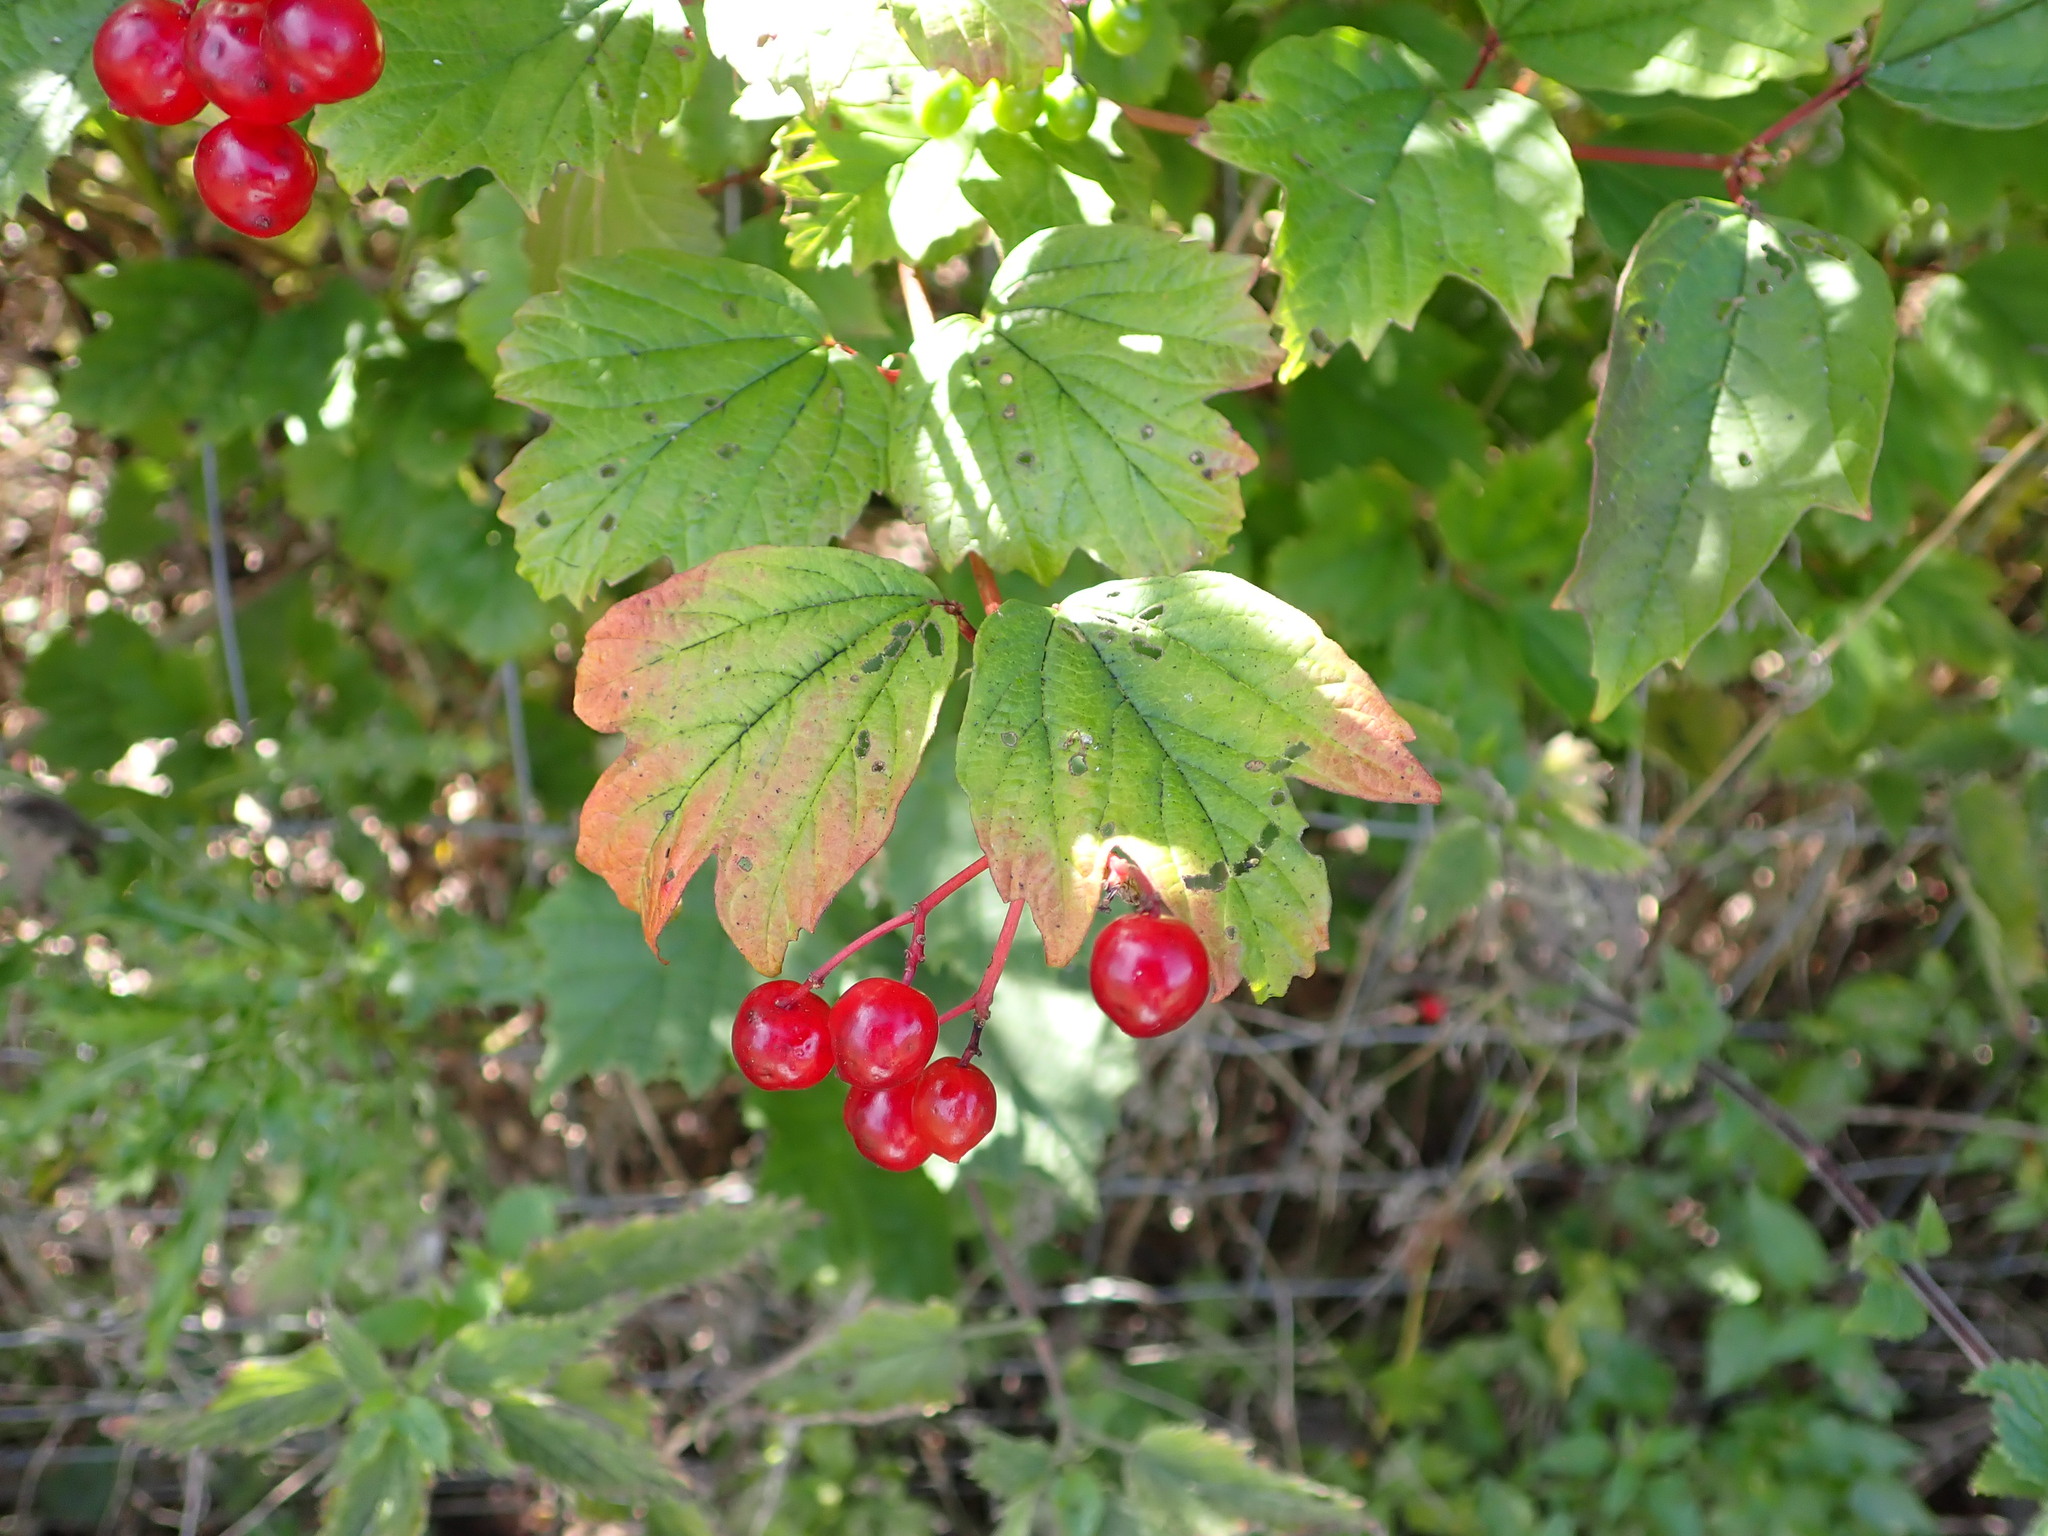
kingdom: Plantae
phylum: Tracheophyta
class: Magnoliopsida
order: Dipsacales
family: Viburnaceae
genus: Viburnum
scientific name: Viburnum opulus
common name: Guelder-rose
